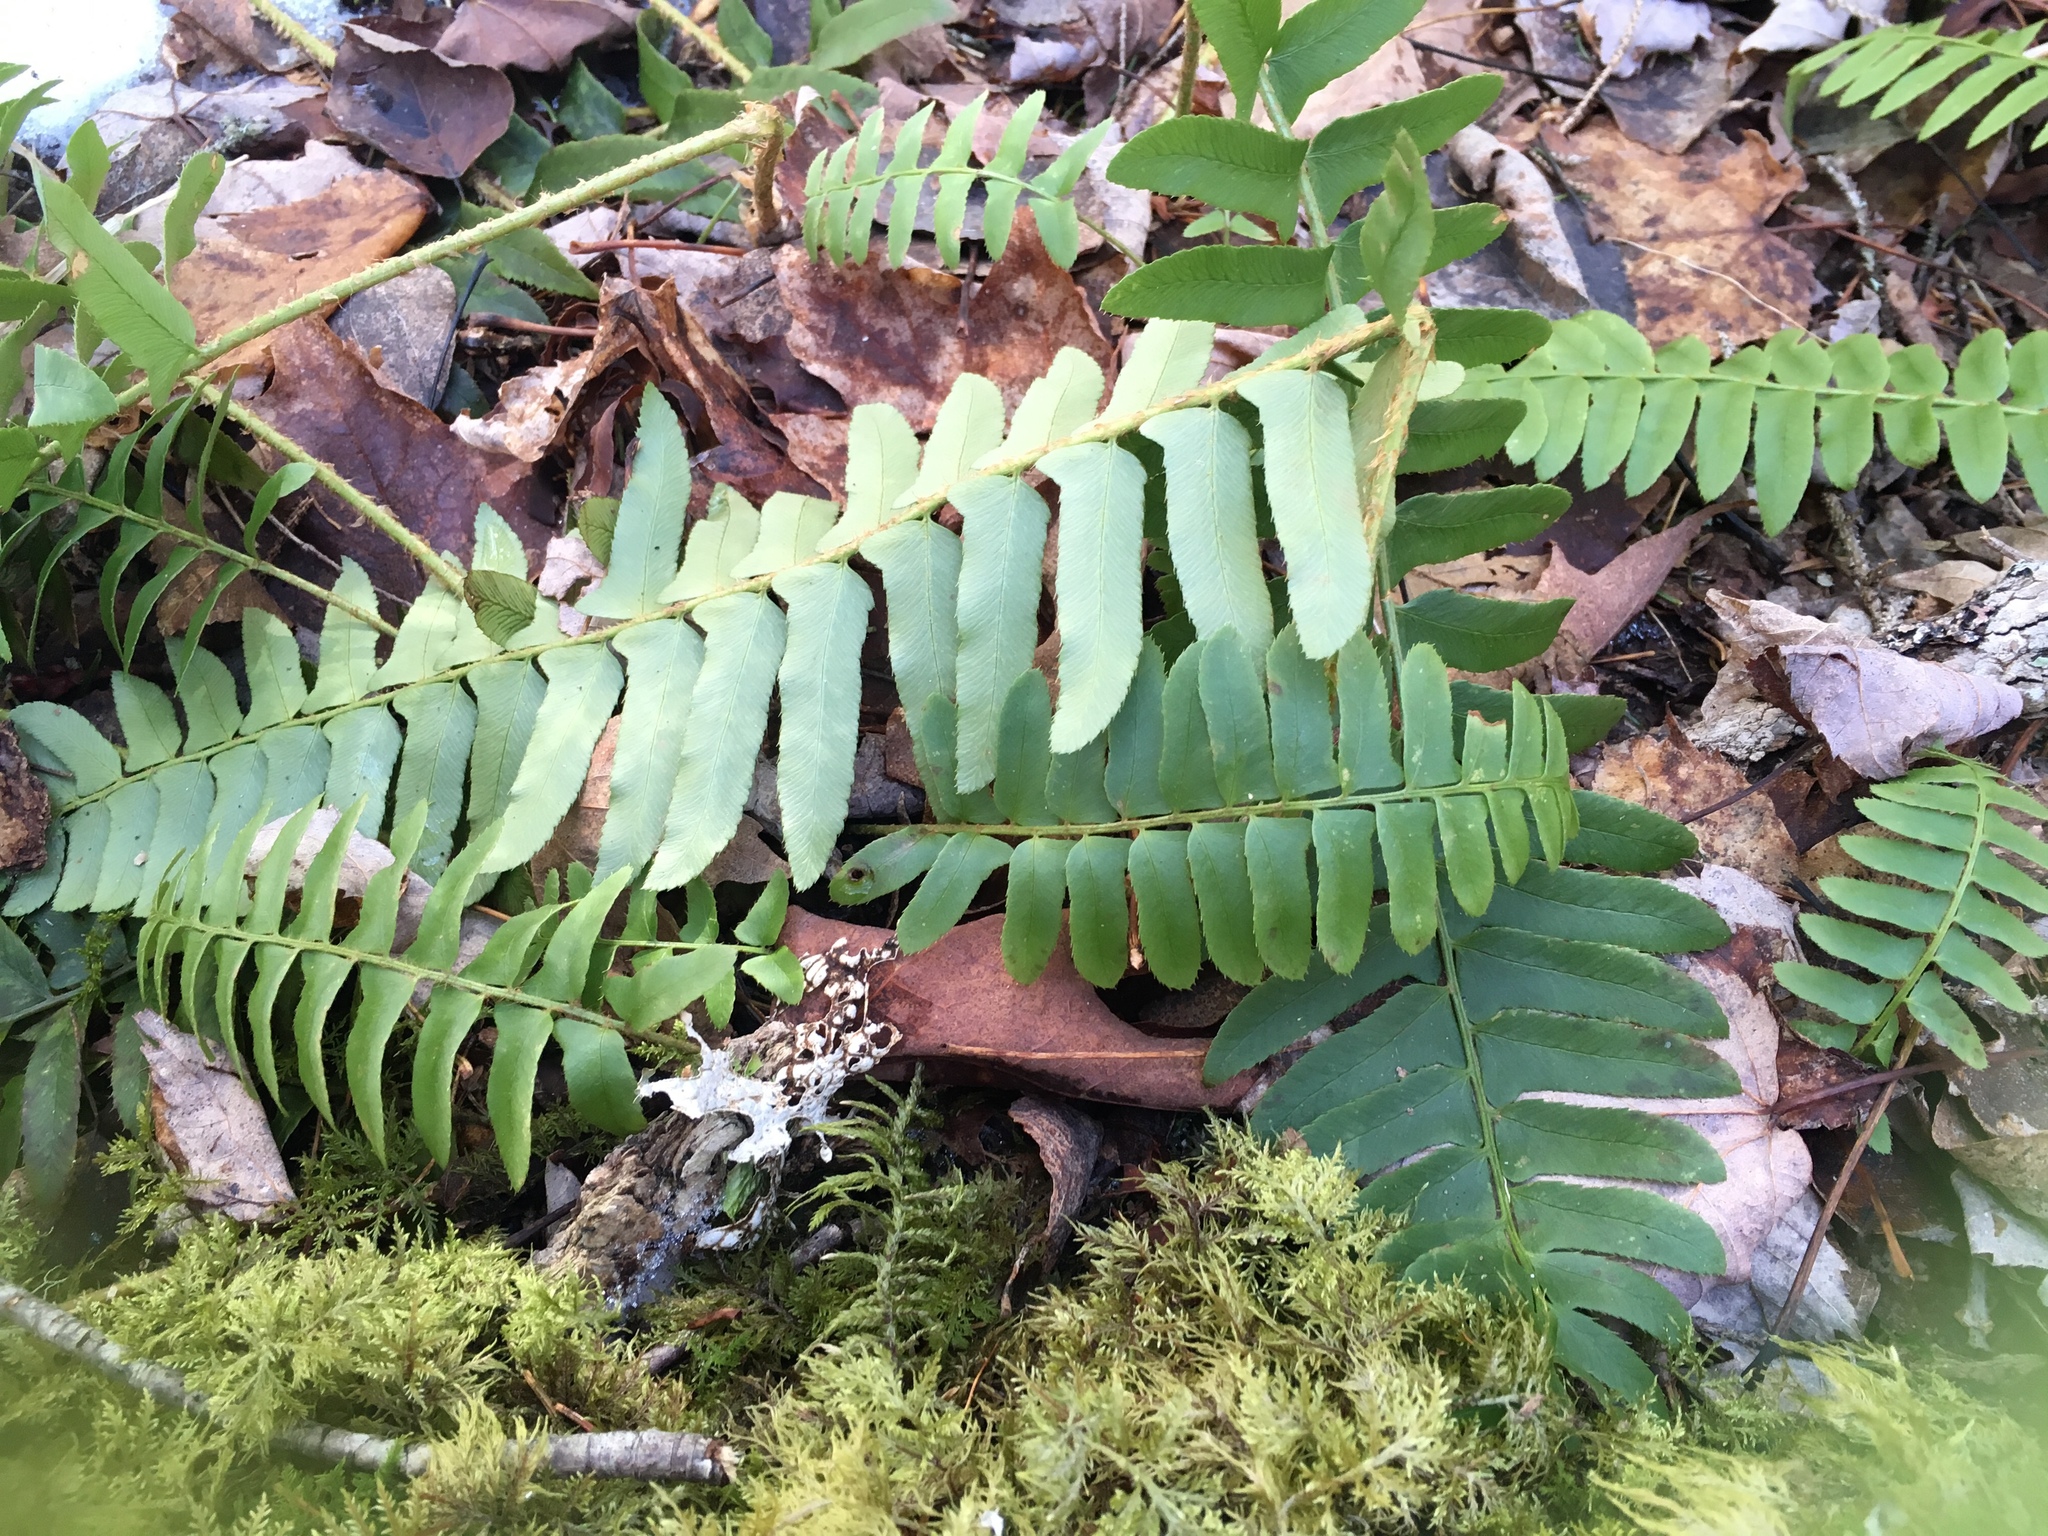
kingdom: Plantae
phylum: Tracheophyta
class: Polypodiopsida
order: Polypodiales
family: Dryopteridaceae
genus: Polystichum
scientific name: Polystichum acrostichoides
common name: Christmas fern
